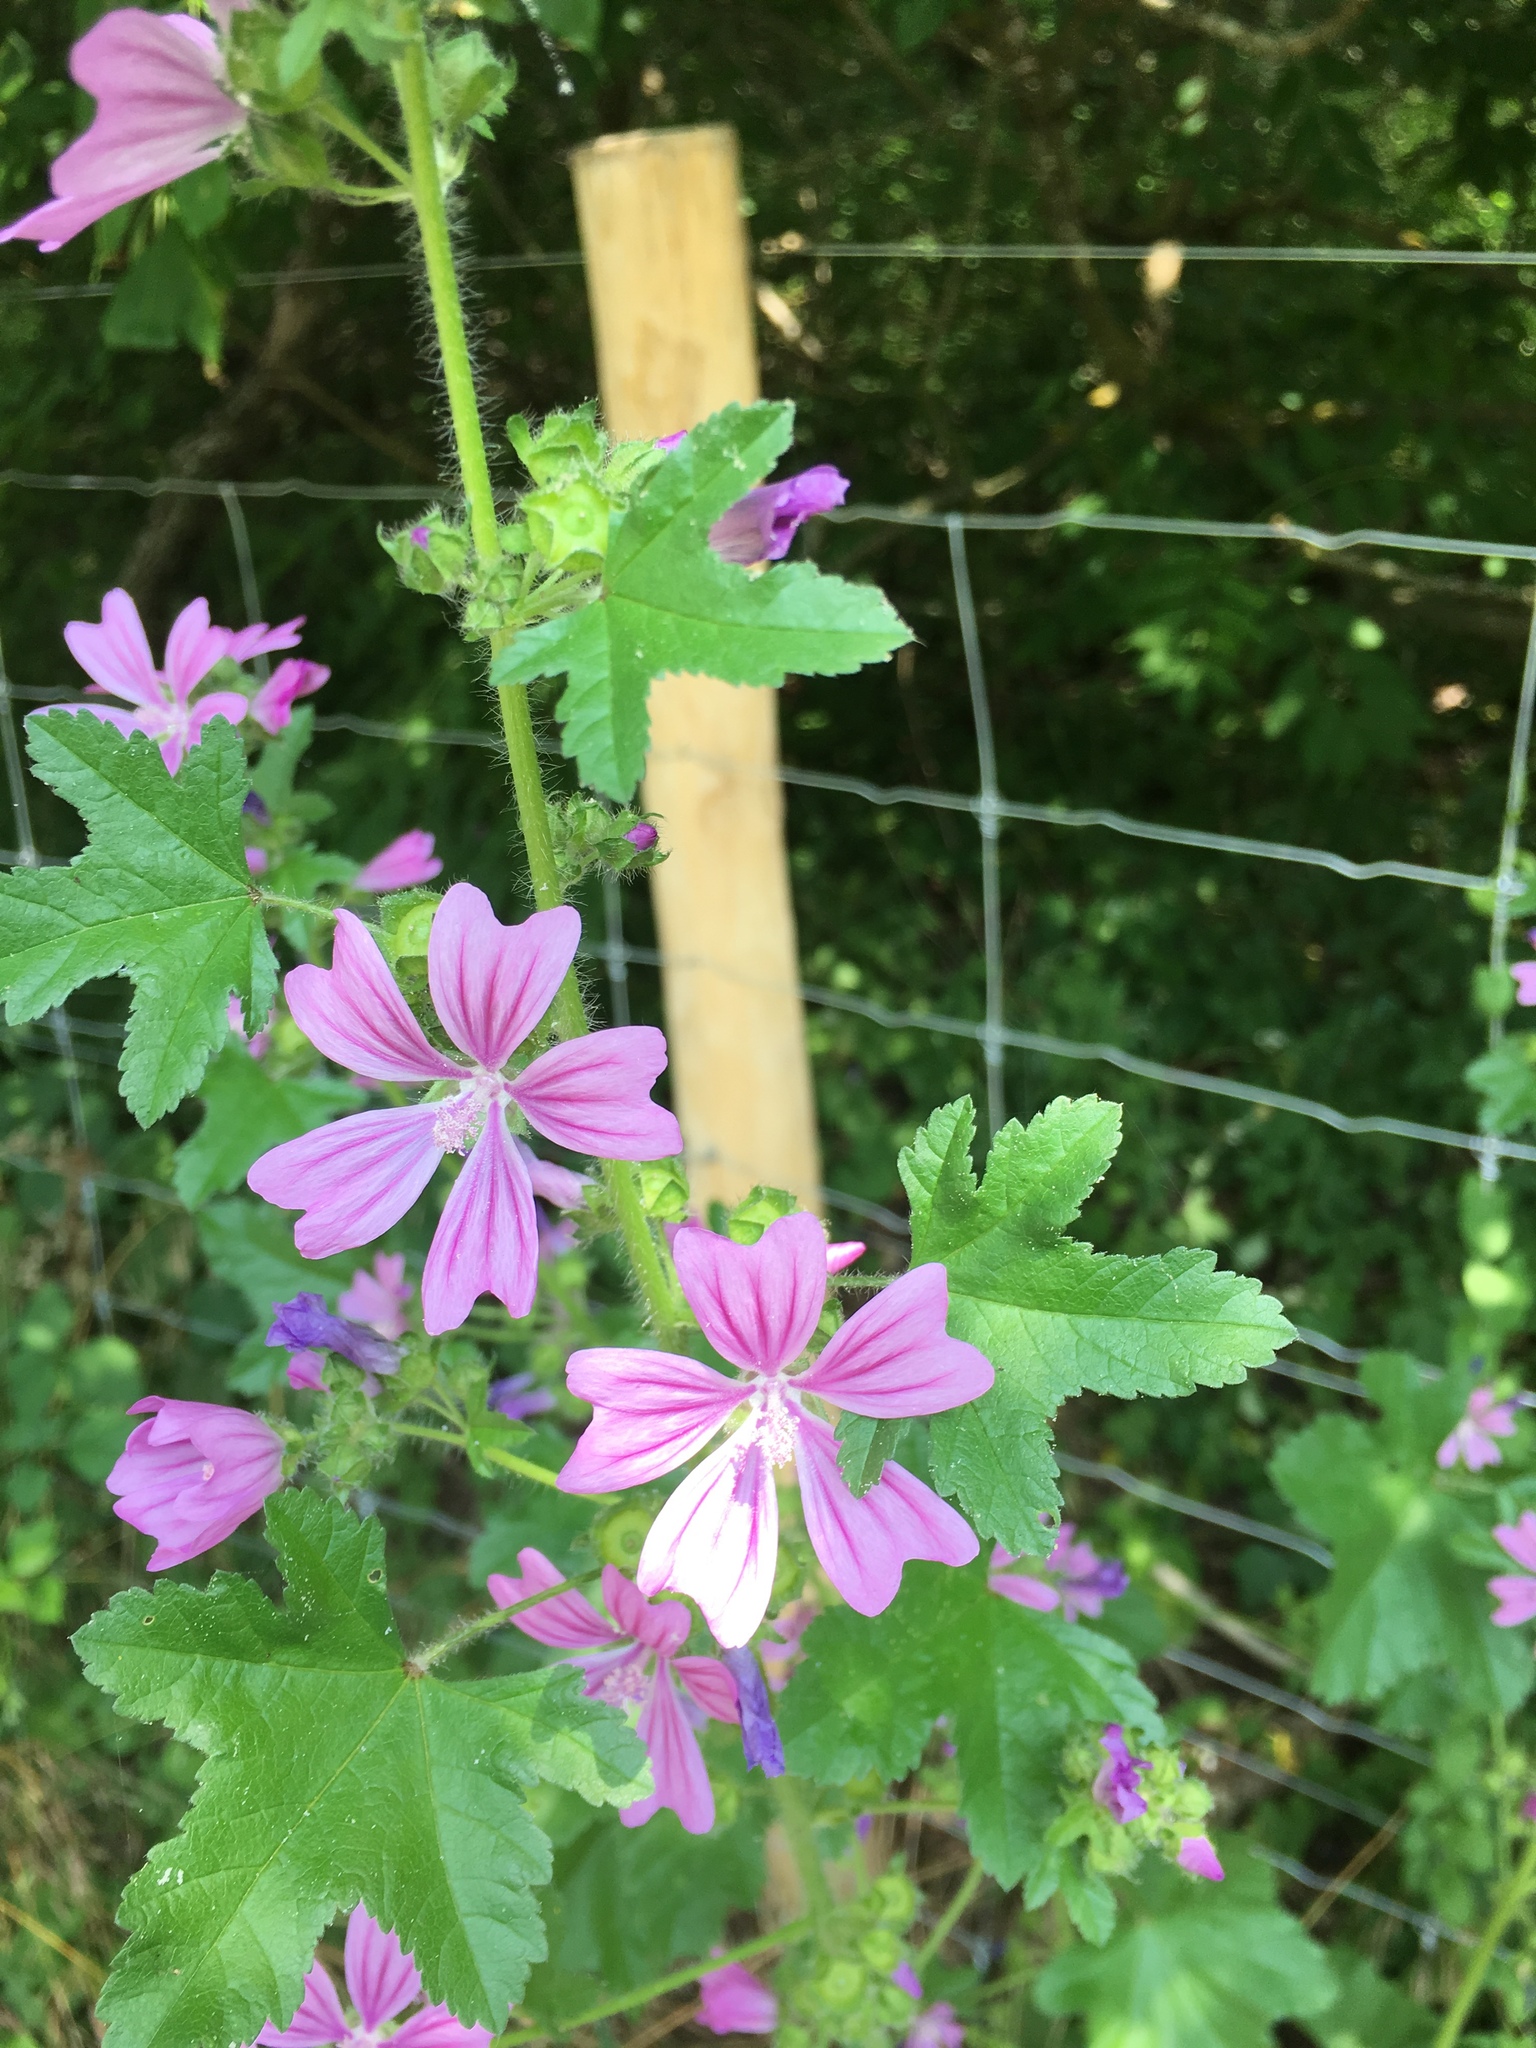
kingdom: Plantae
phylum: Tracheophyta
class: Magnoliopsida
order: Malvales
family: Malvaceae
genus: Malva
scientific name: Malva sylvestris
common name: Common mallow
